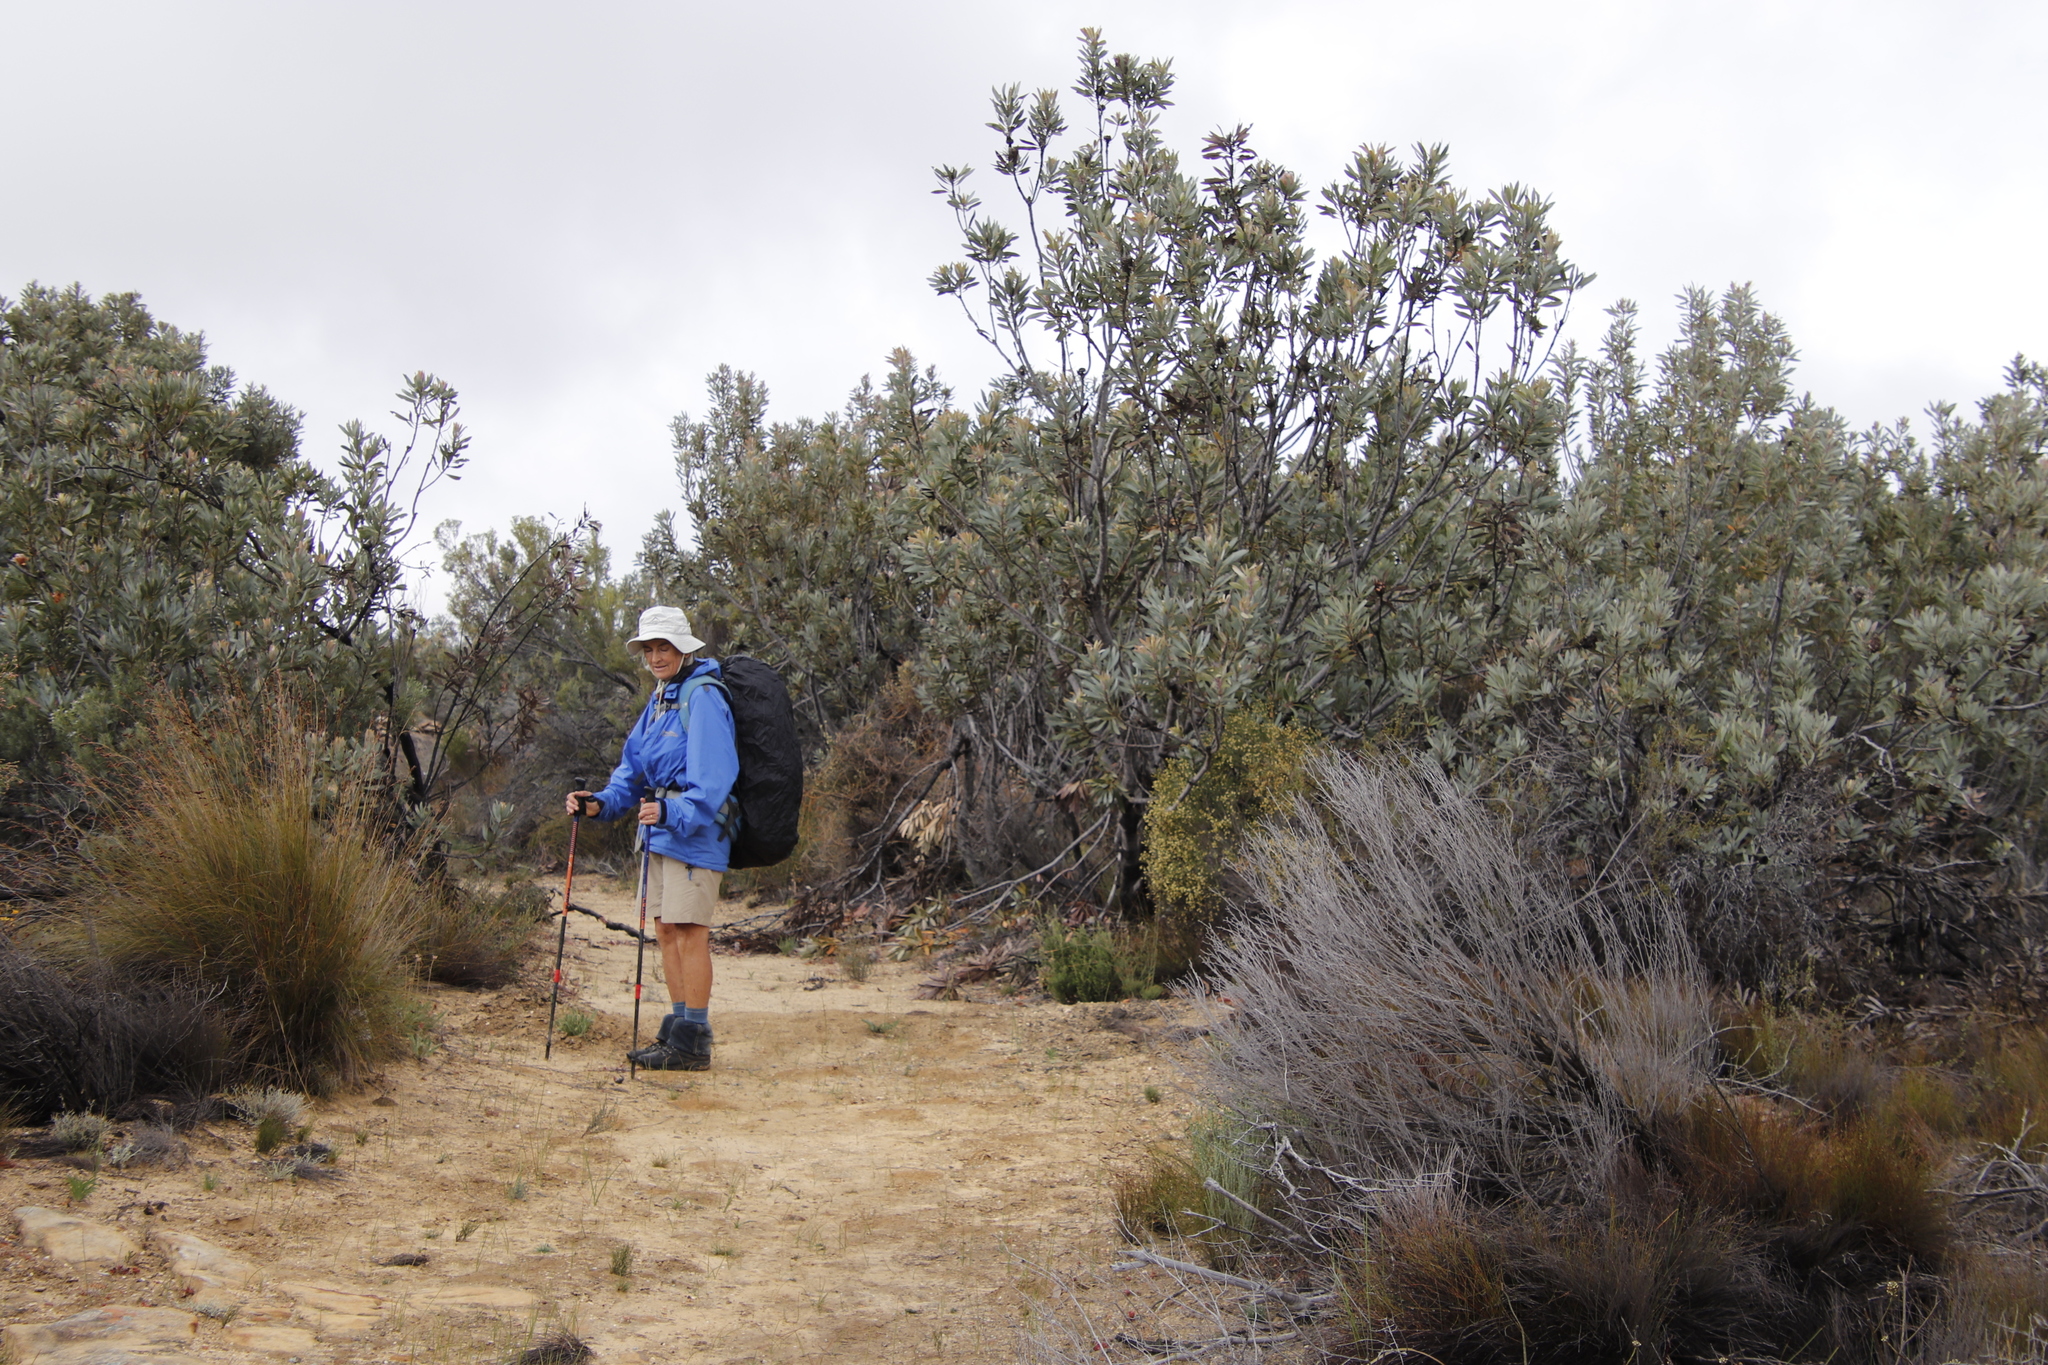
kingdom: Plantae
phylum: Tracheophyta
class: Magnoliopsida
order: Proteales
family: Proteaceae
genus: Protea
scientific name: Protea laurifolia
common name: Grey-leaf sugarbsh
